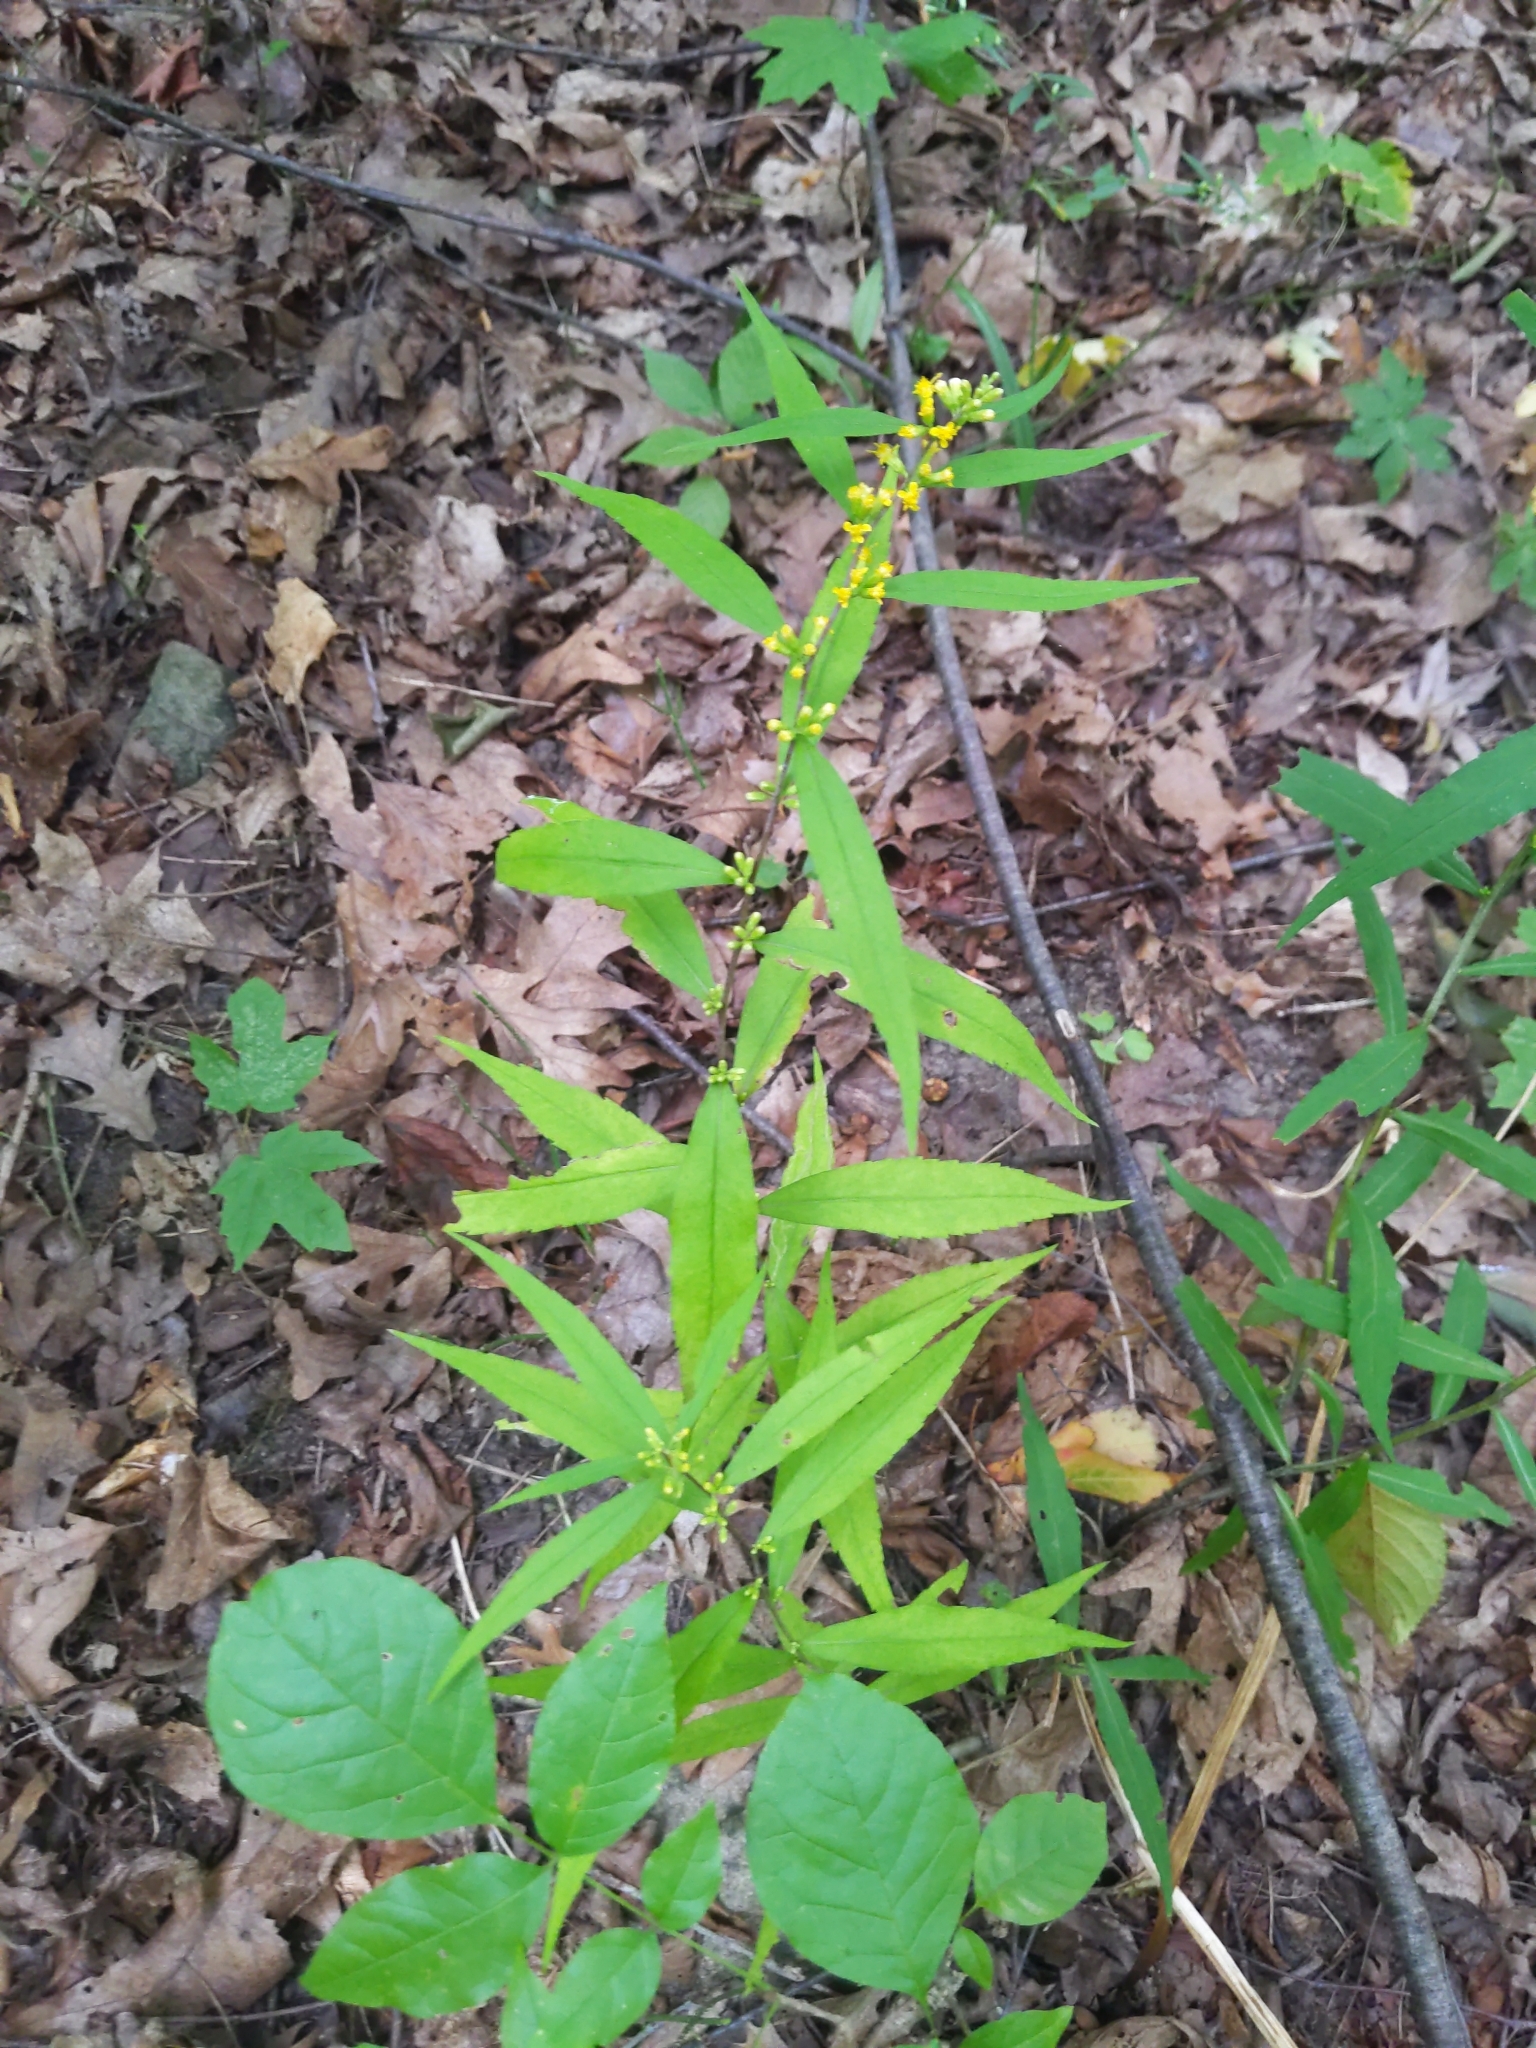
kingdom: Plantae
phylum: Tracheophyta
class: Magnoliopsida
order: Asterales
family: Asteraceae
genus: Solidago
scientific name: Solidago caesia
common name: Woodland goldenrod
